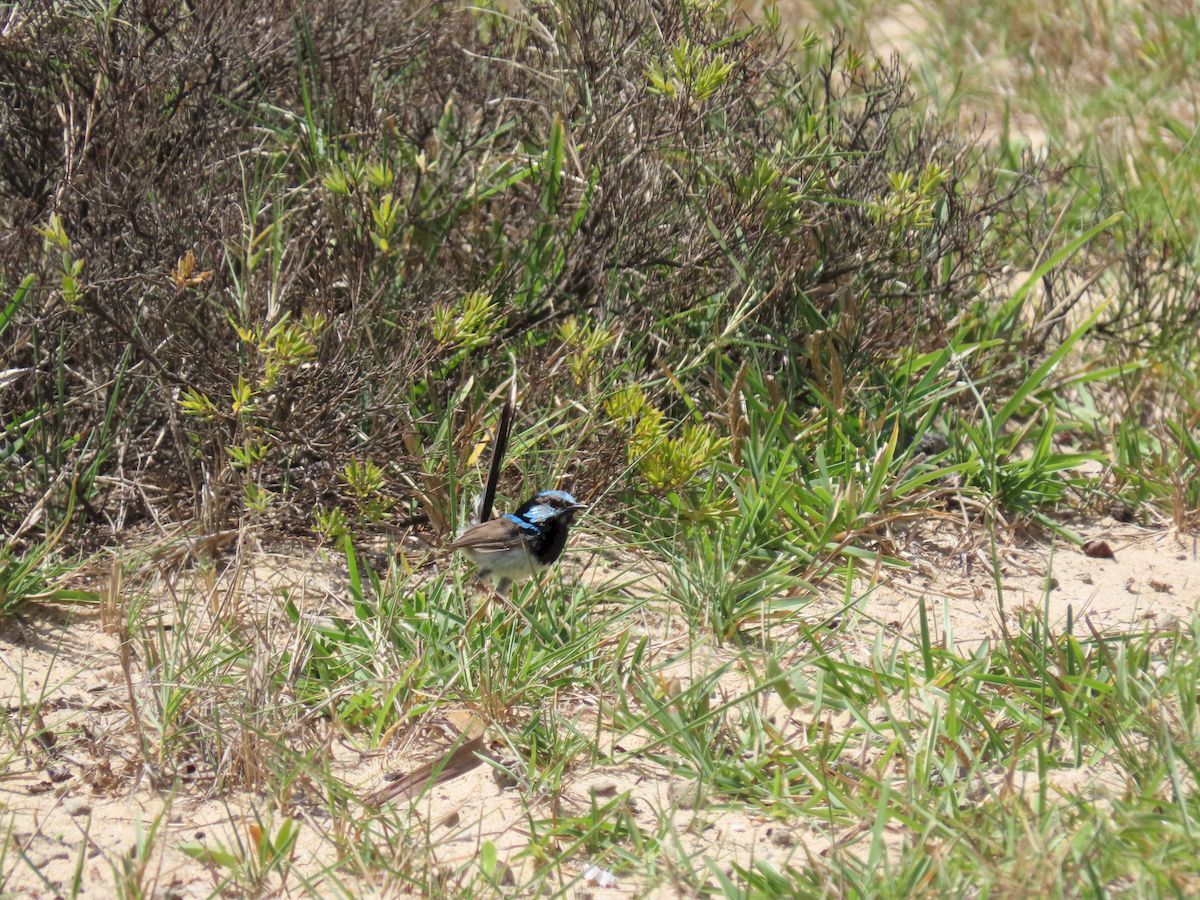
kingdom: Animalia
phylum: Chordata
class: Aves
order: Passeriformes
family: Maluridae
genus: Malurus
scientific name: Malurus cyaneus
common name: Superb fairywren
